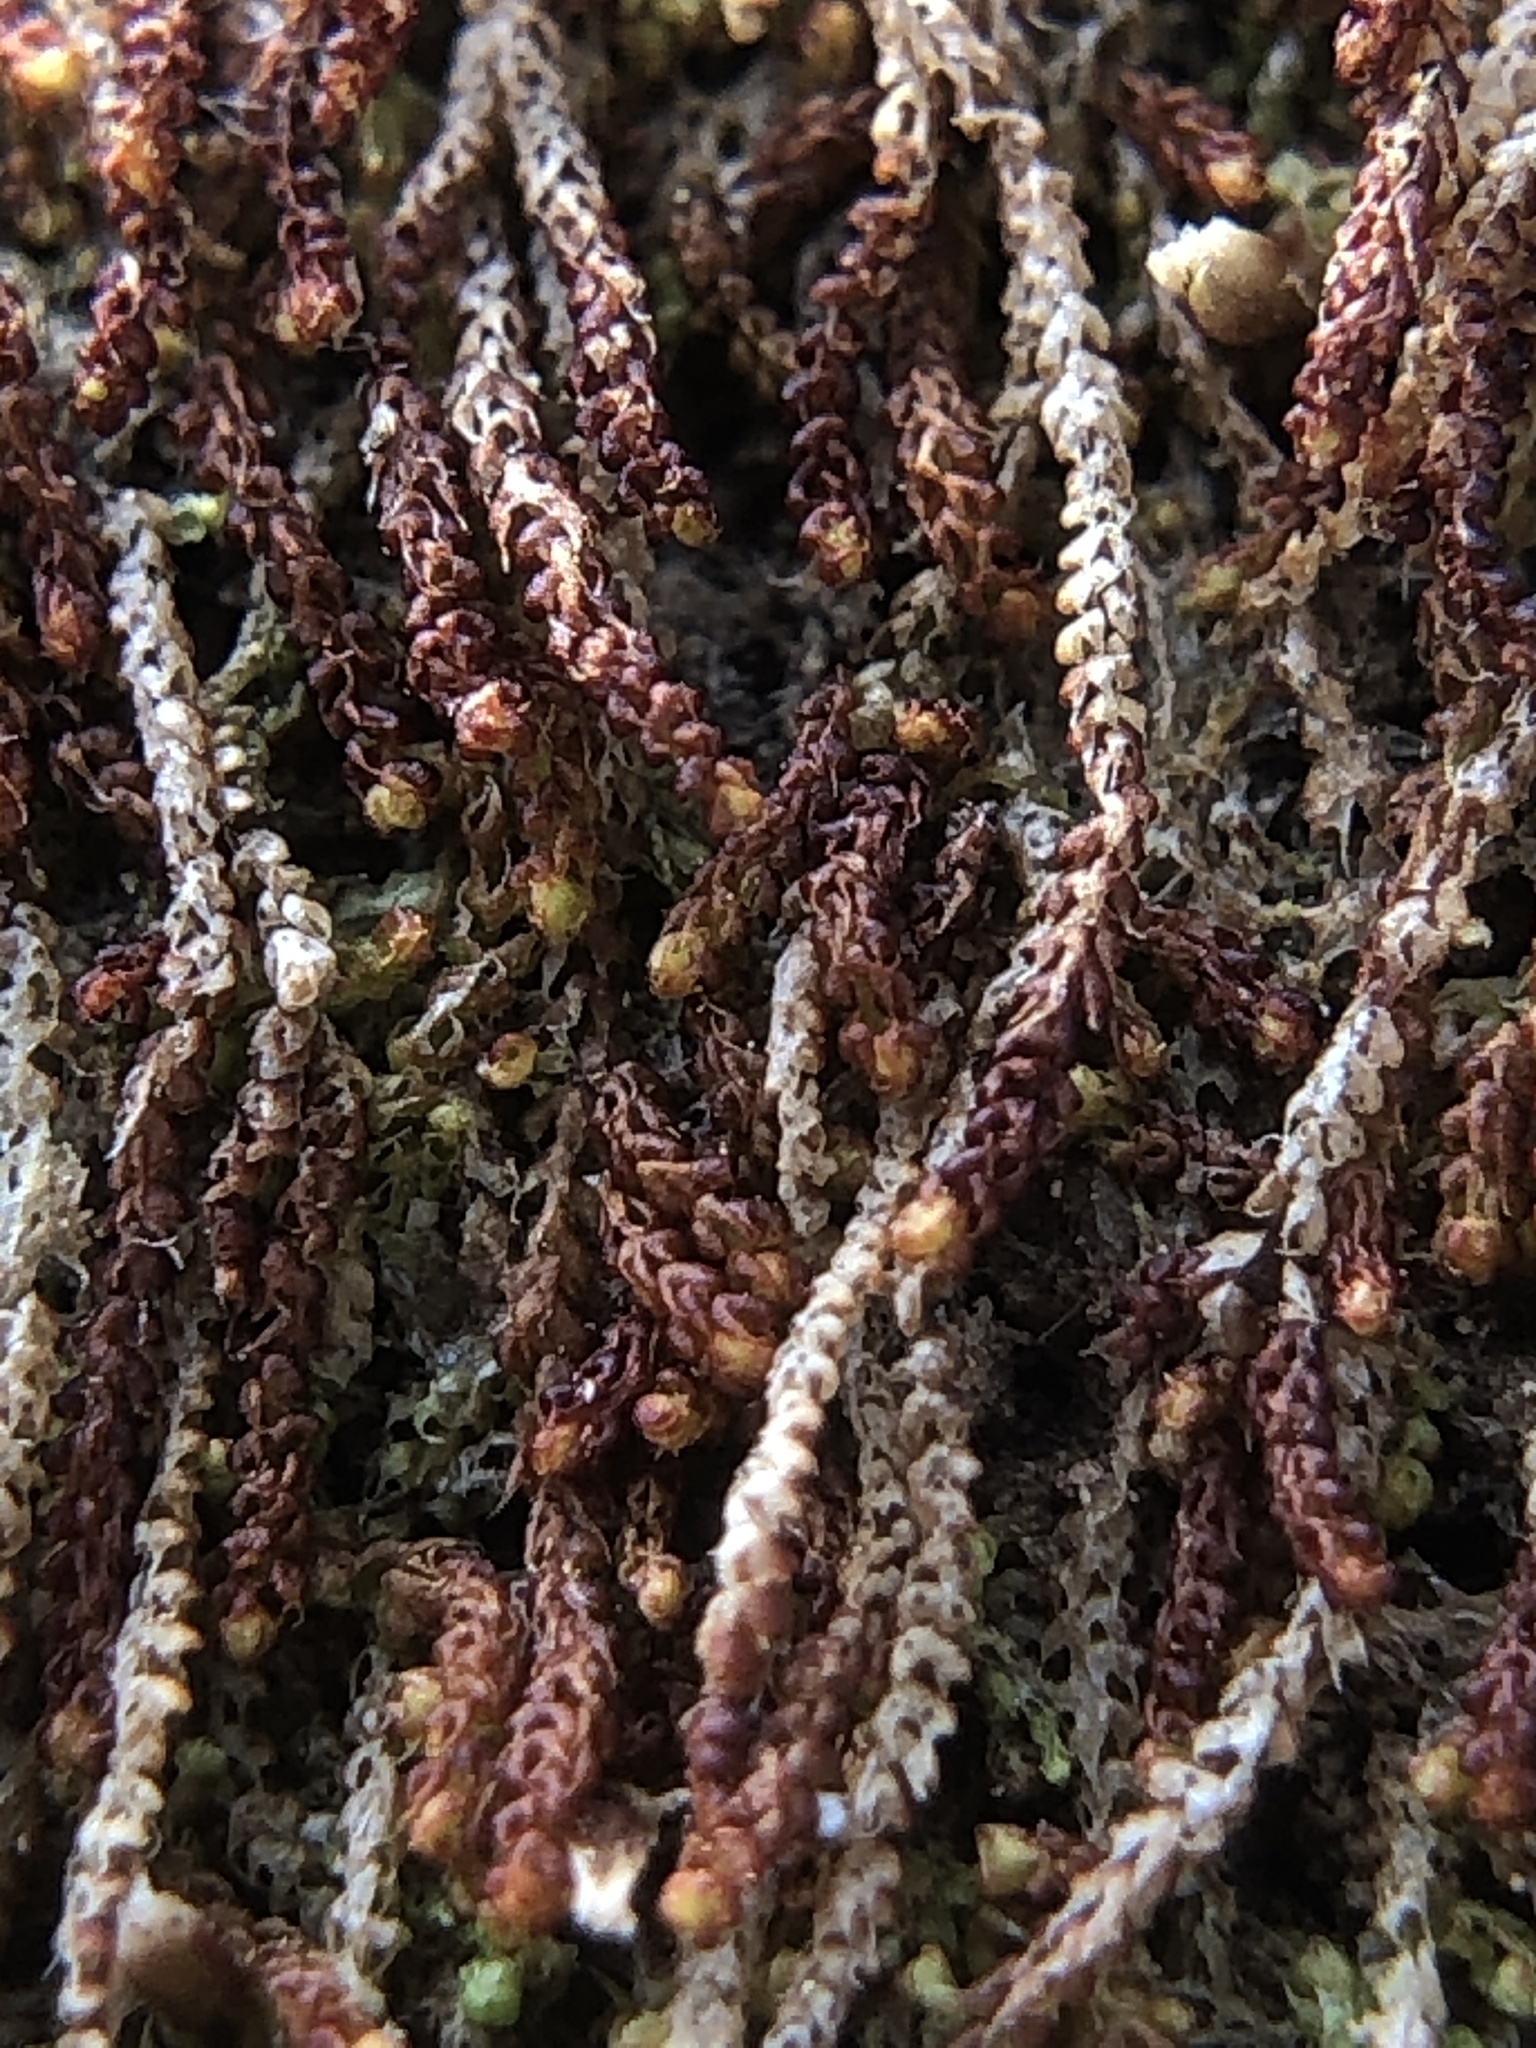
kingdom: Plantae
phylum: Marchantiophyta
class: Jungermanniopsida
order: Jungermanniales
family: Cephaloziaceae
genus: Nowellia
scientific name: Nowellia curvifolia
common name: Wood rustwort
